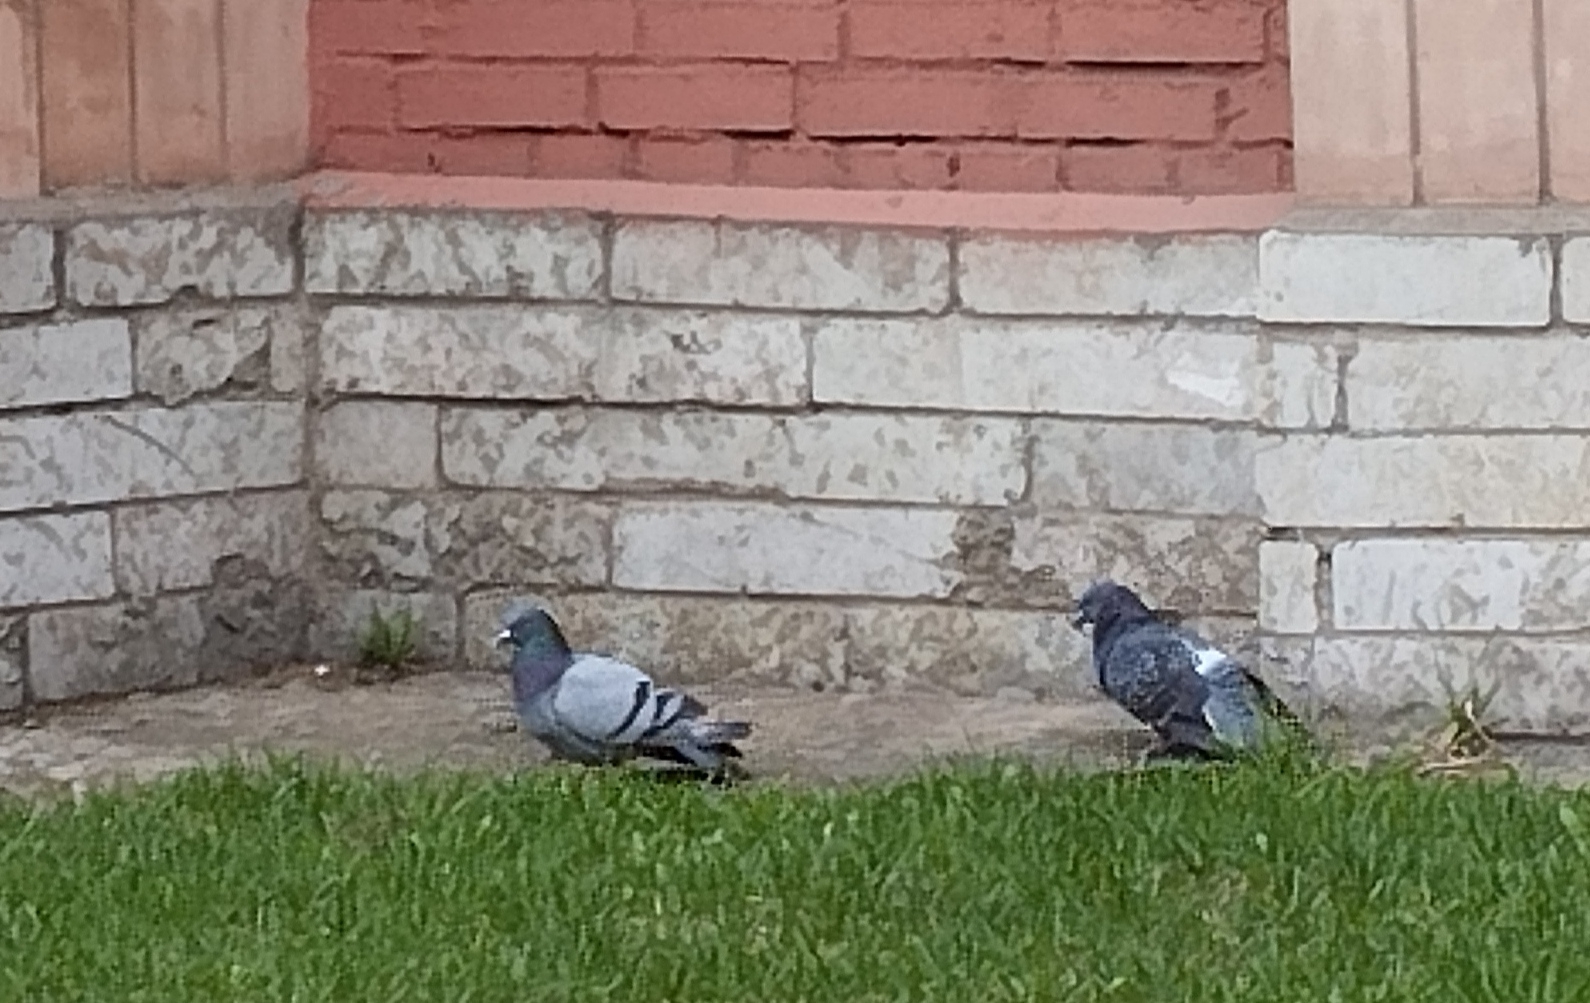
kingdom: Animalia
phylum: Chordata
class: Aves
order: Columbiformes
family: Columbidae
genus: Columba
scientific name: Columba livia
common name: Rock pigeon
